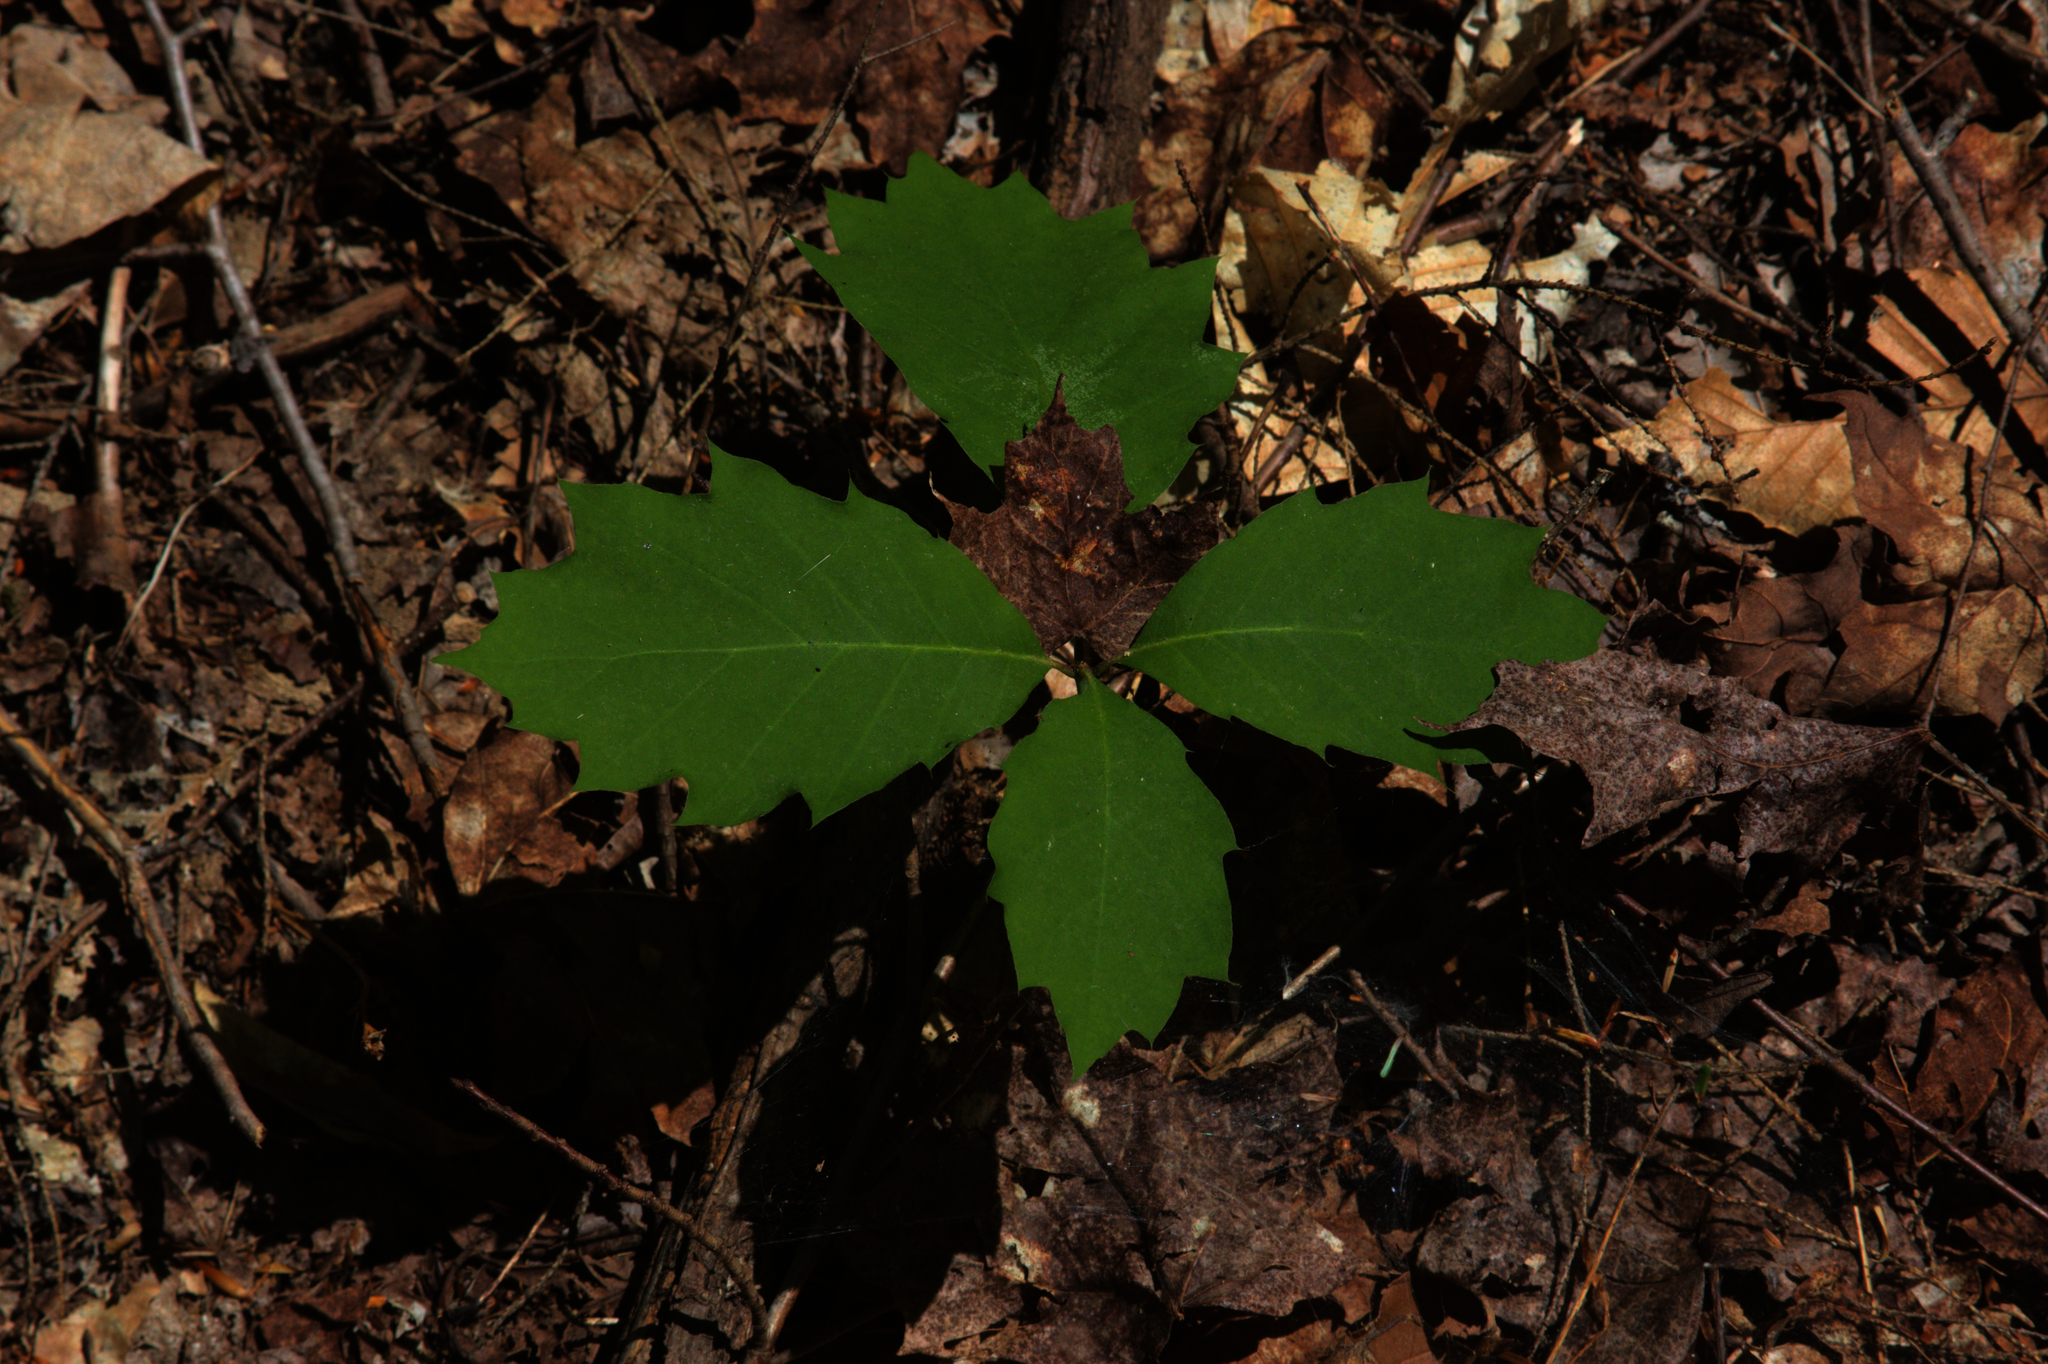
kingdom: Plantae
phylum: Tracheophyta
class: Magnoliopsida
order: Fagales
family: Fagaceae
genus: Quercus
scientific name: Quercus rubra
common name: Red oak
